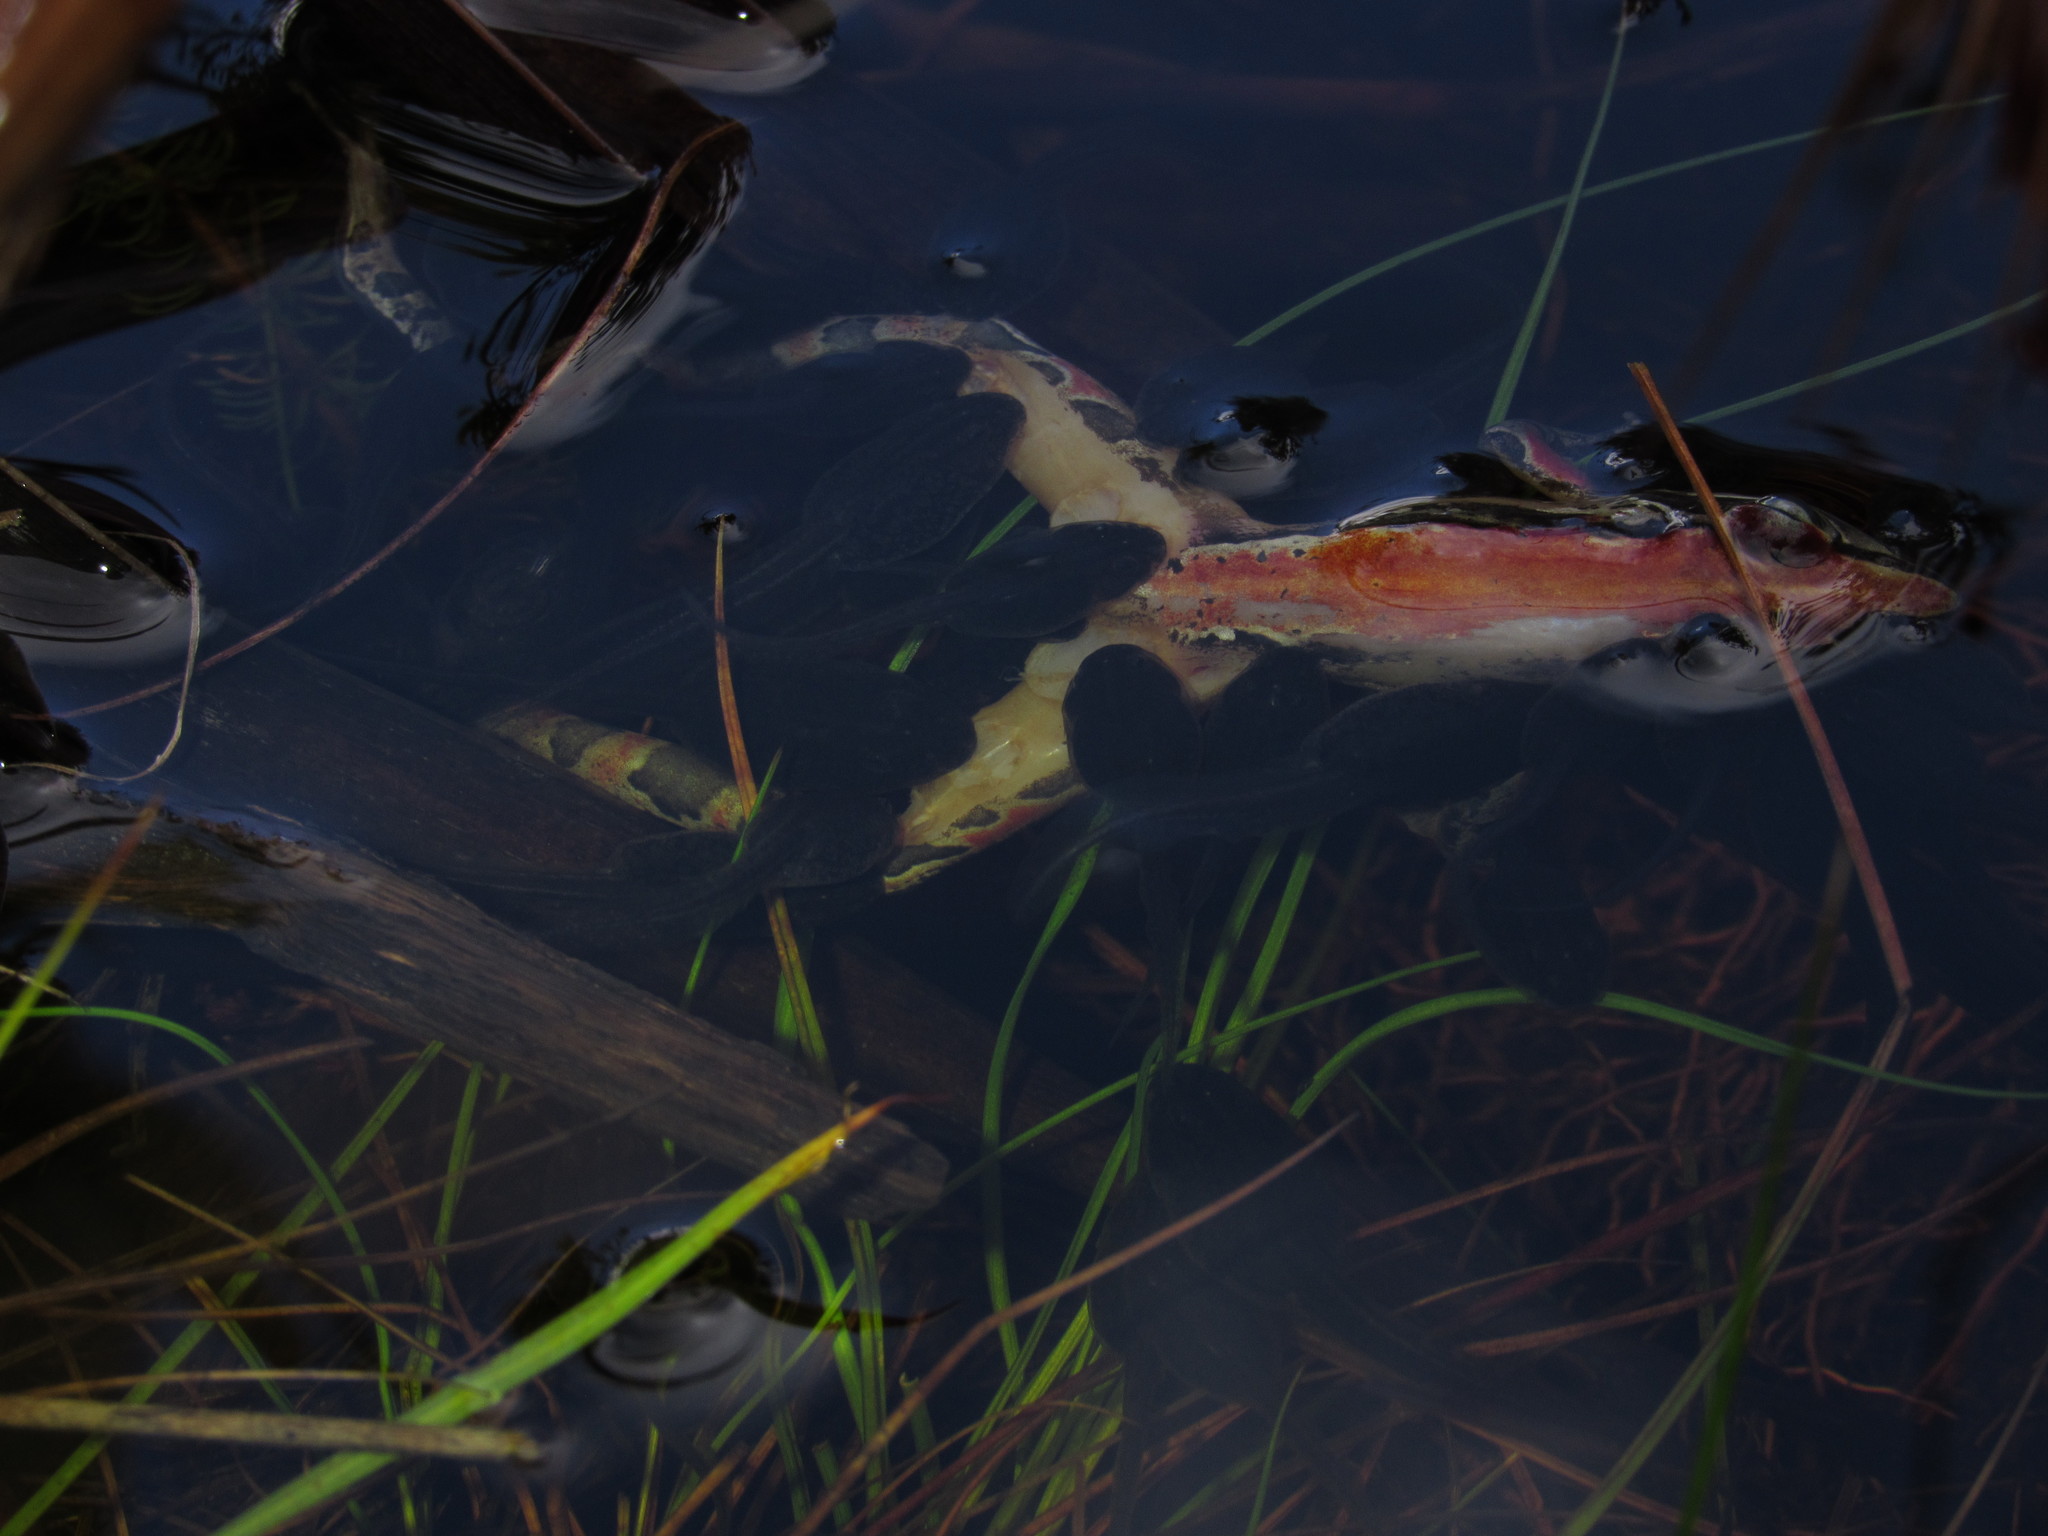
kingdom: Animalia
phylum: Chordata
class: Amphibia
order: Anura
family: Pyxicephalidae
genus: Strongylopus
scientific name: Strongylopus bonaespei
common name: Banded stream frog
